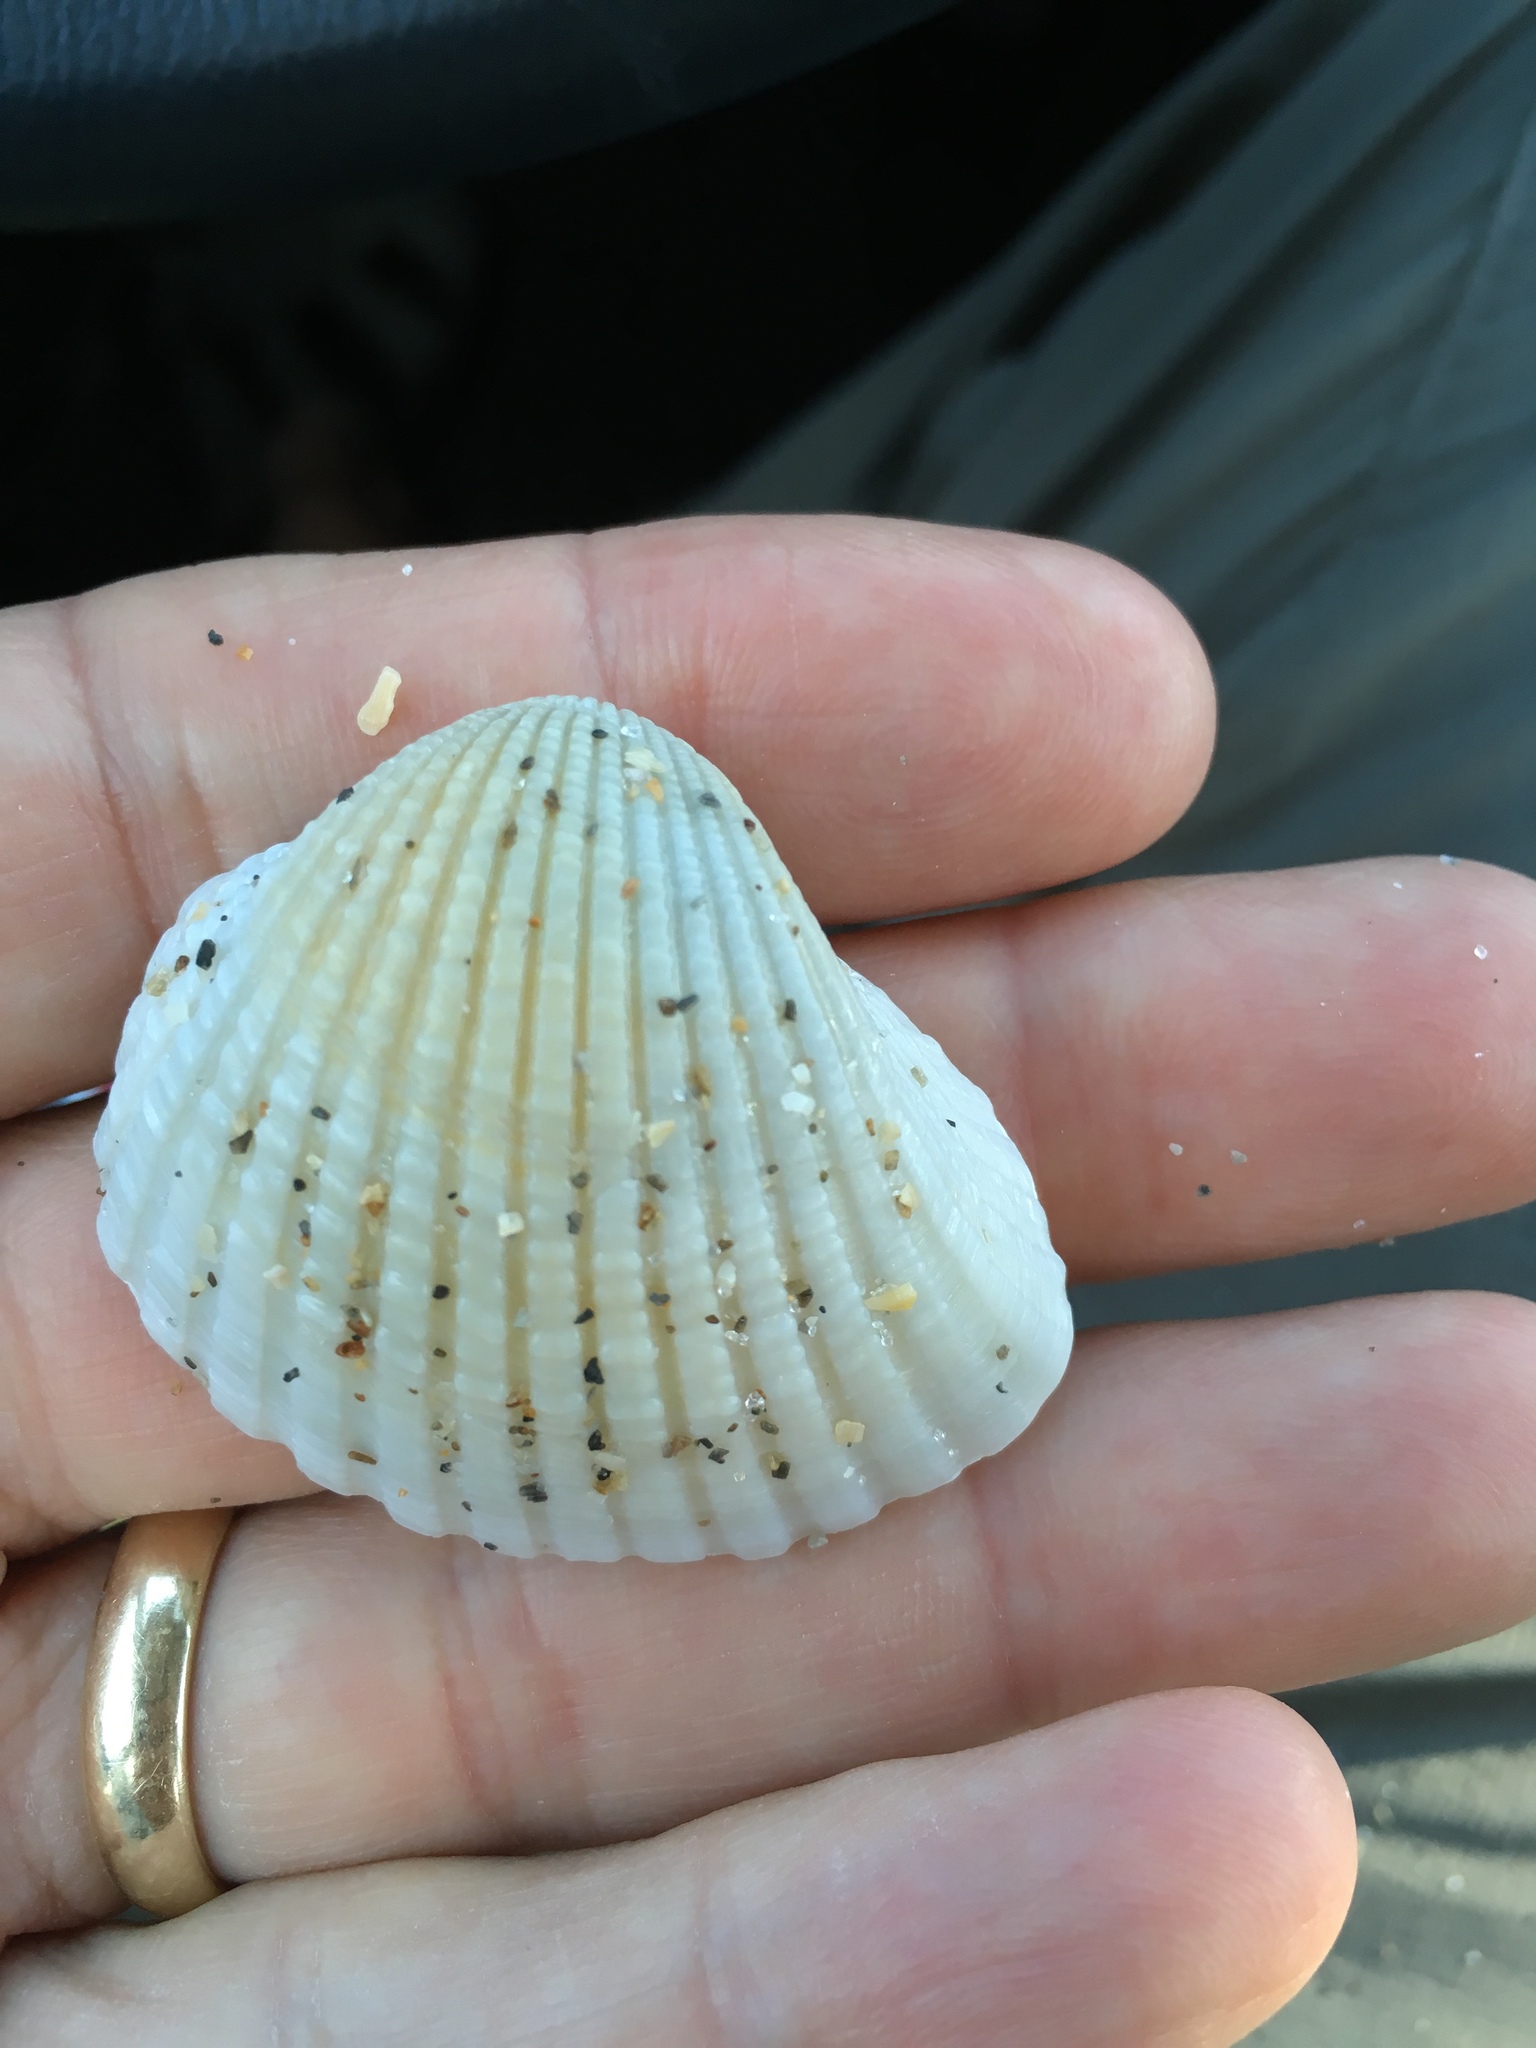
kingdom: Animalia
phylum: Mollusca
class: Bivalvia
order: Arcida
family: Arcidae
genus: Anadara
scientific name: Anadara brasiliana
